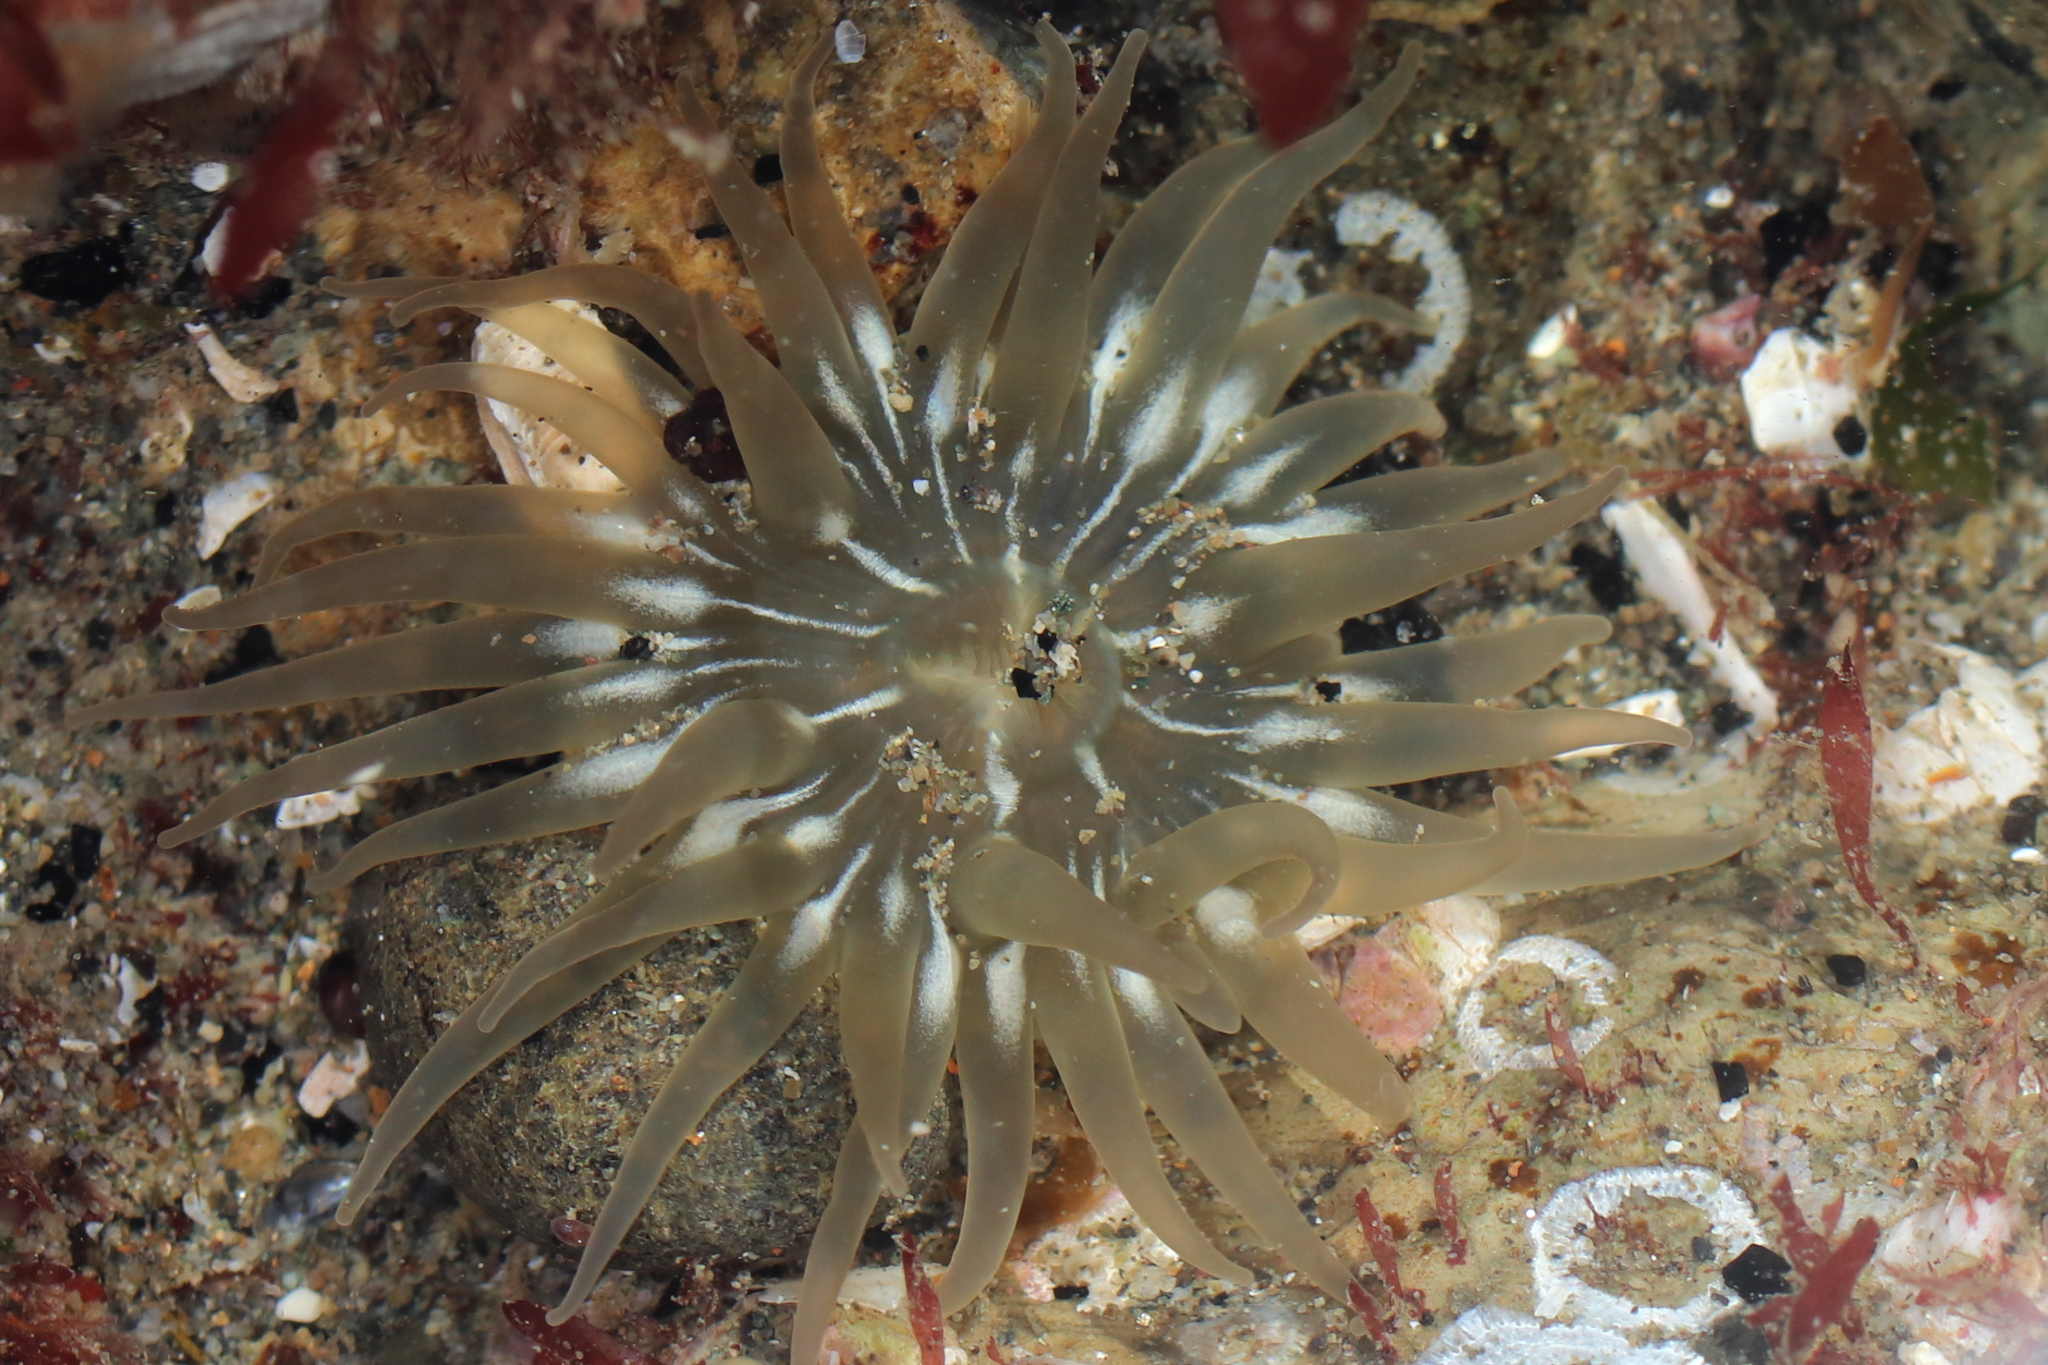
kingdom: Animalia
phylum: Cnidaria
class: Anthozoa
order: Actiniaria
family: Actiniidae
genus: Aulactinia
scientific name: Aulactinia incubans
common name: Incubating anemone
